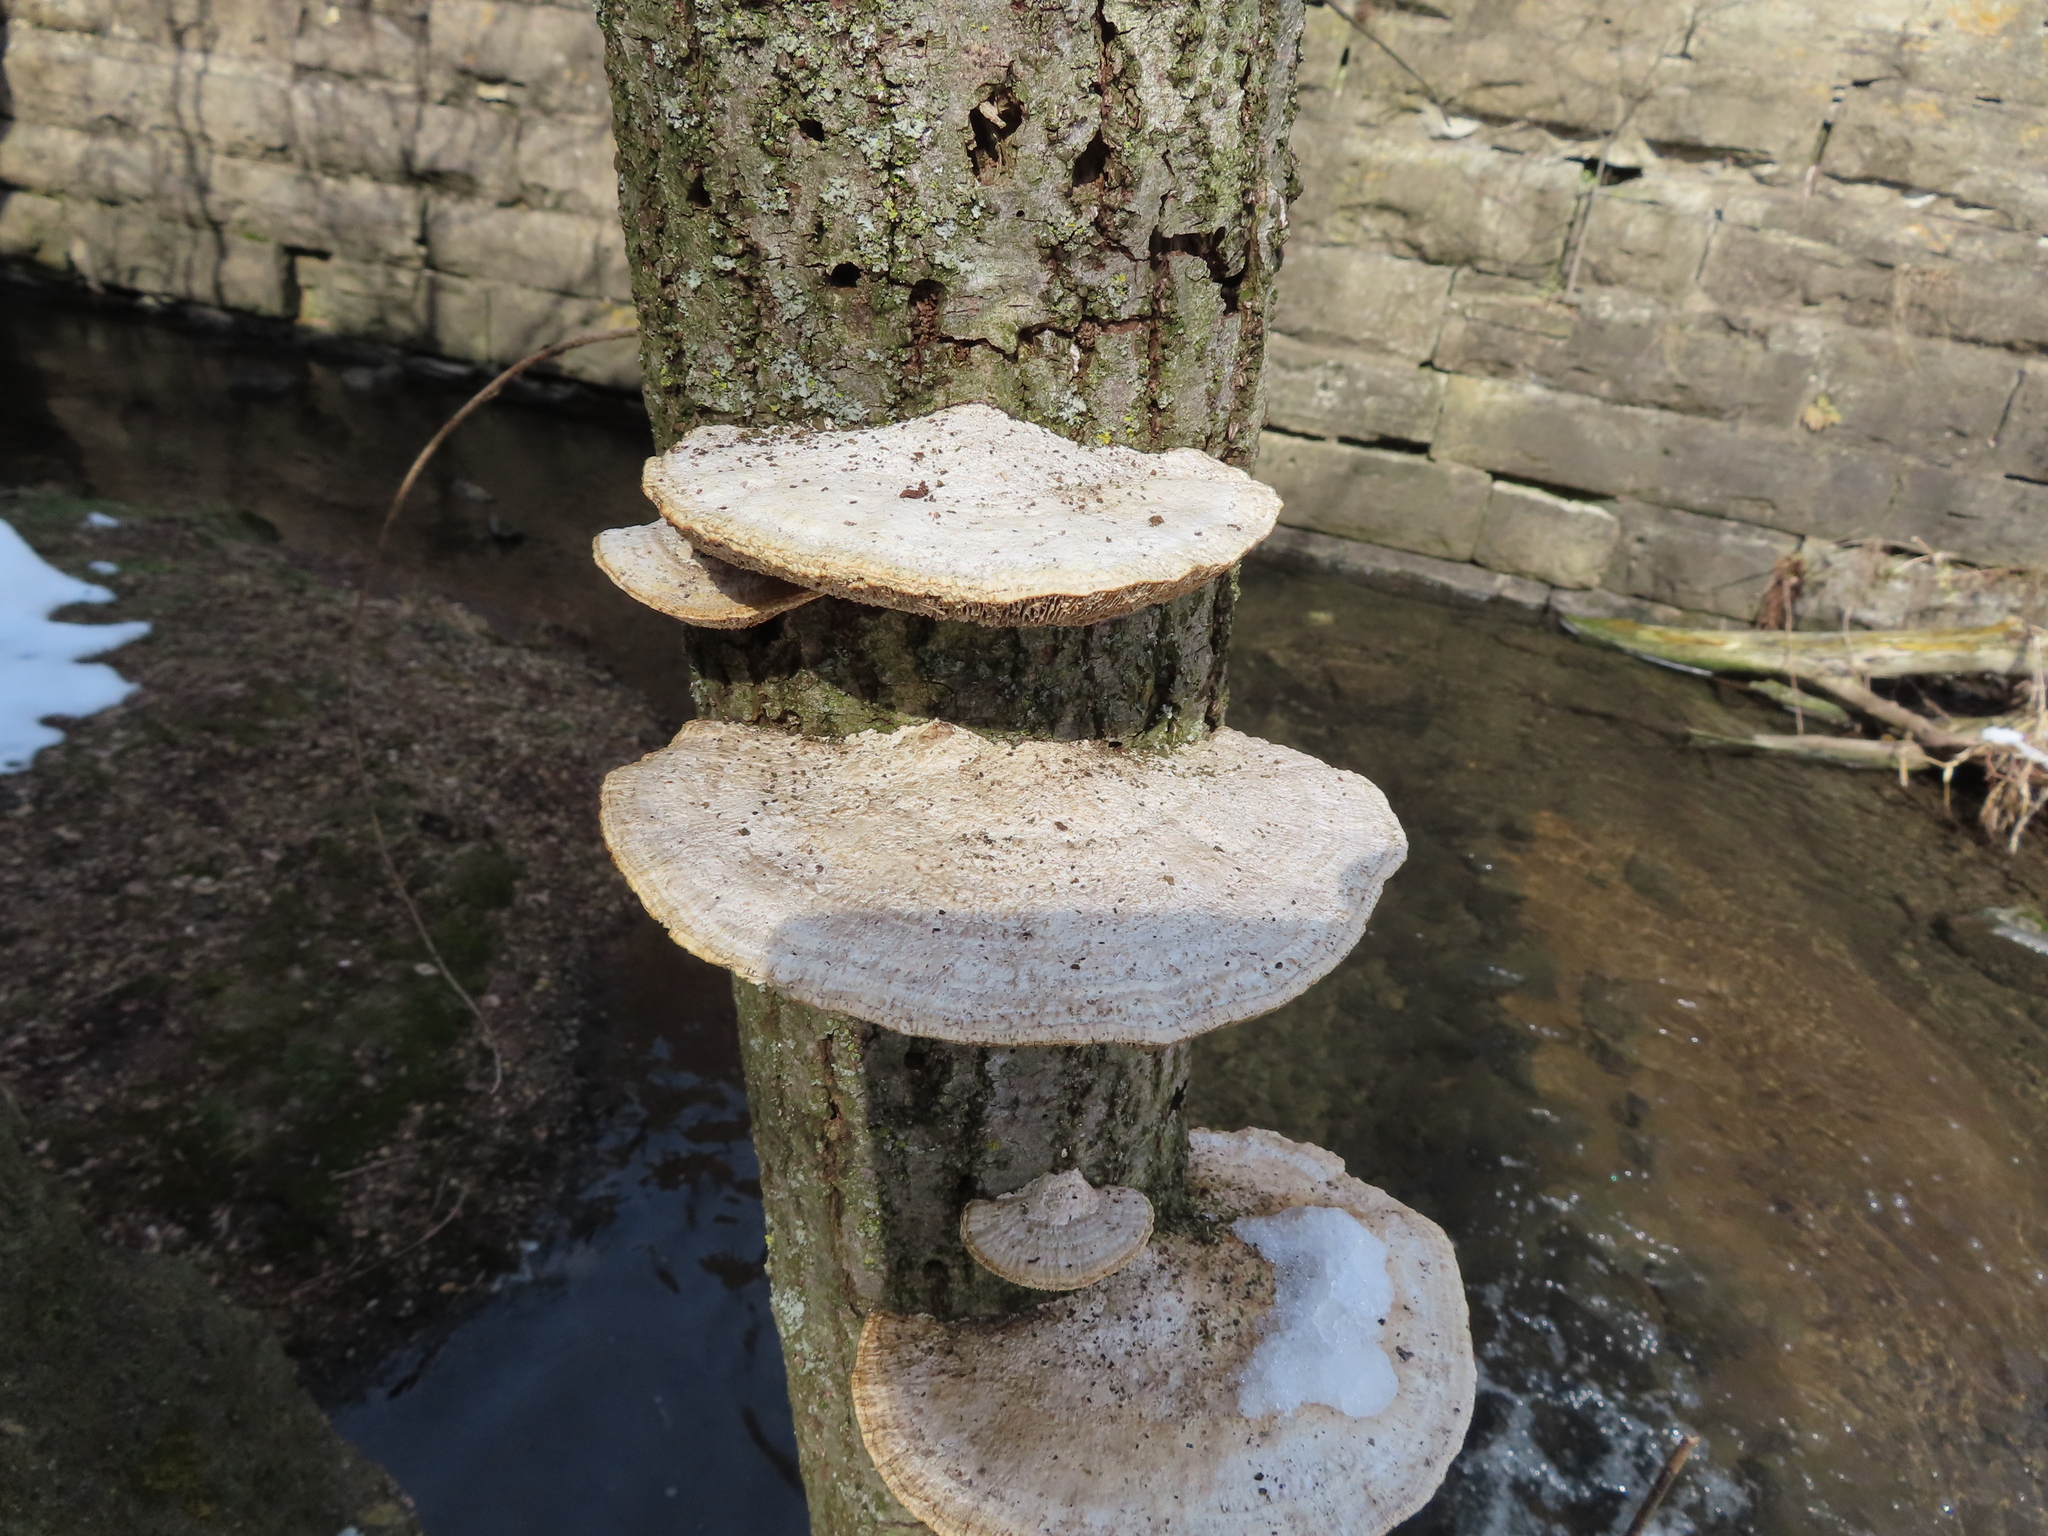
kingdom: Fungi
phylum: Basidiomycota
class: Agaricomycetes
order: Polyporales
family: Polyporaceae
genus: Daedaleopsis
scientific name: Daedaleopsis confragosa
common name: Blushing bracket
